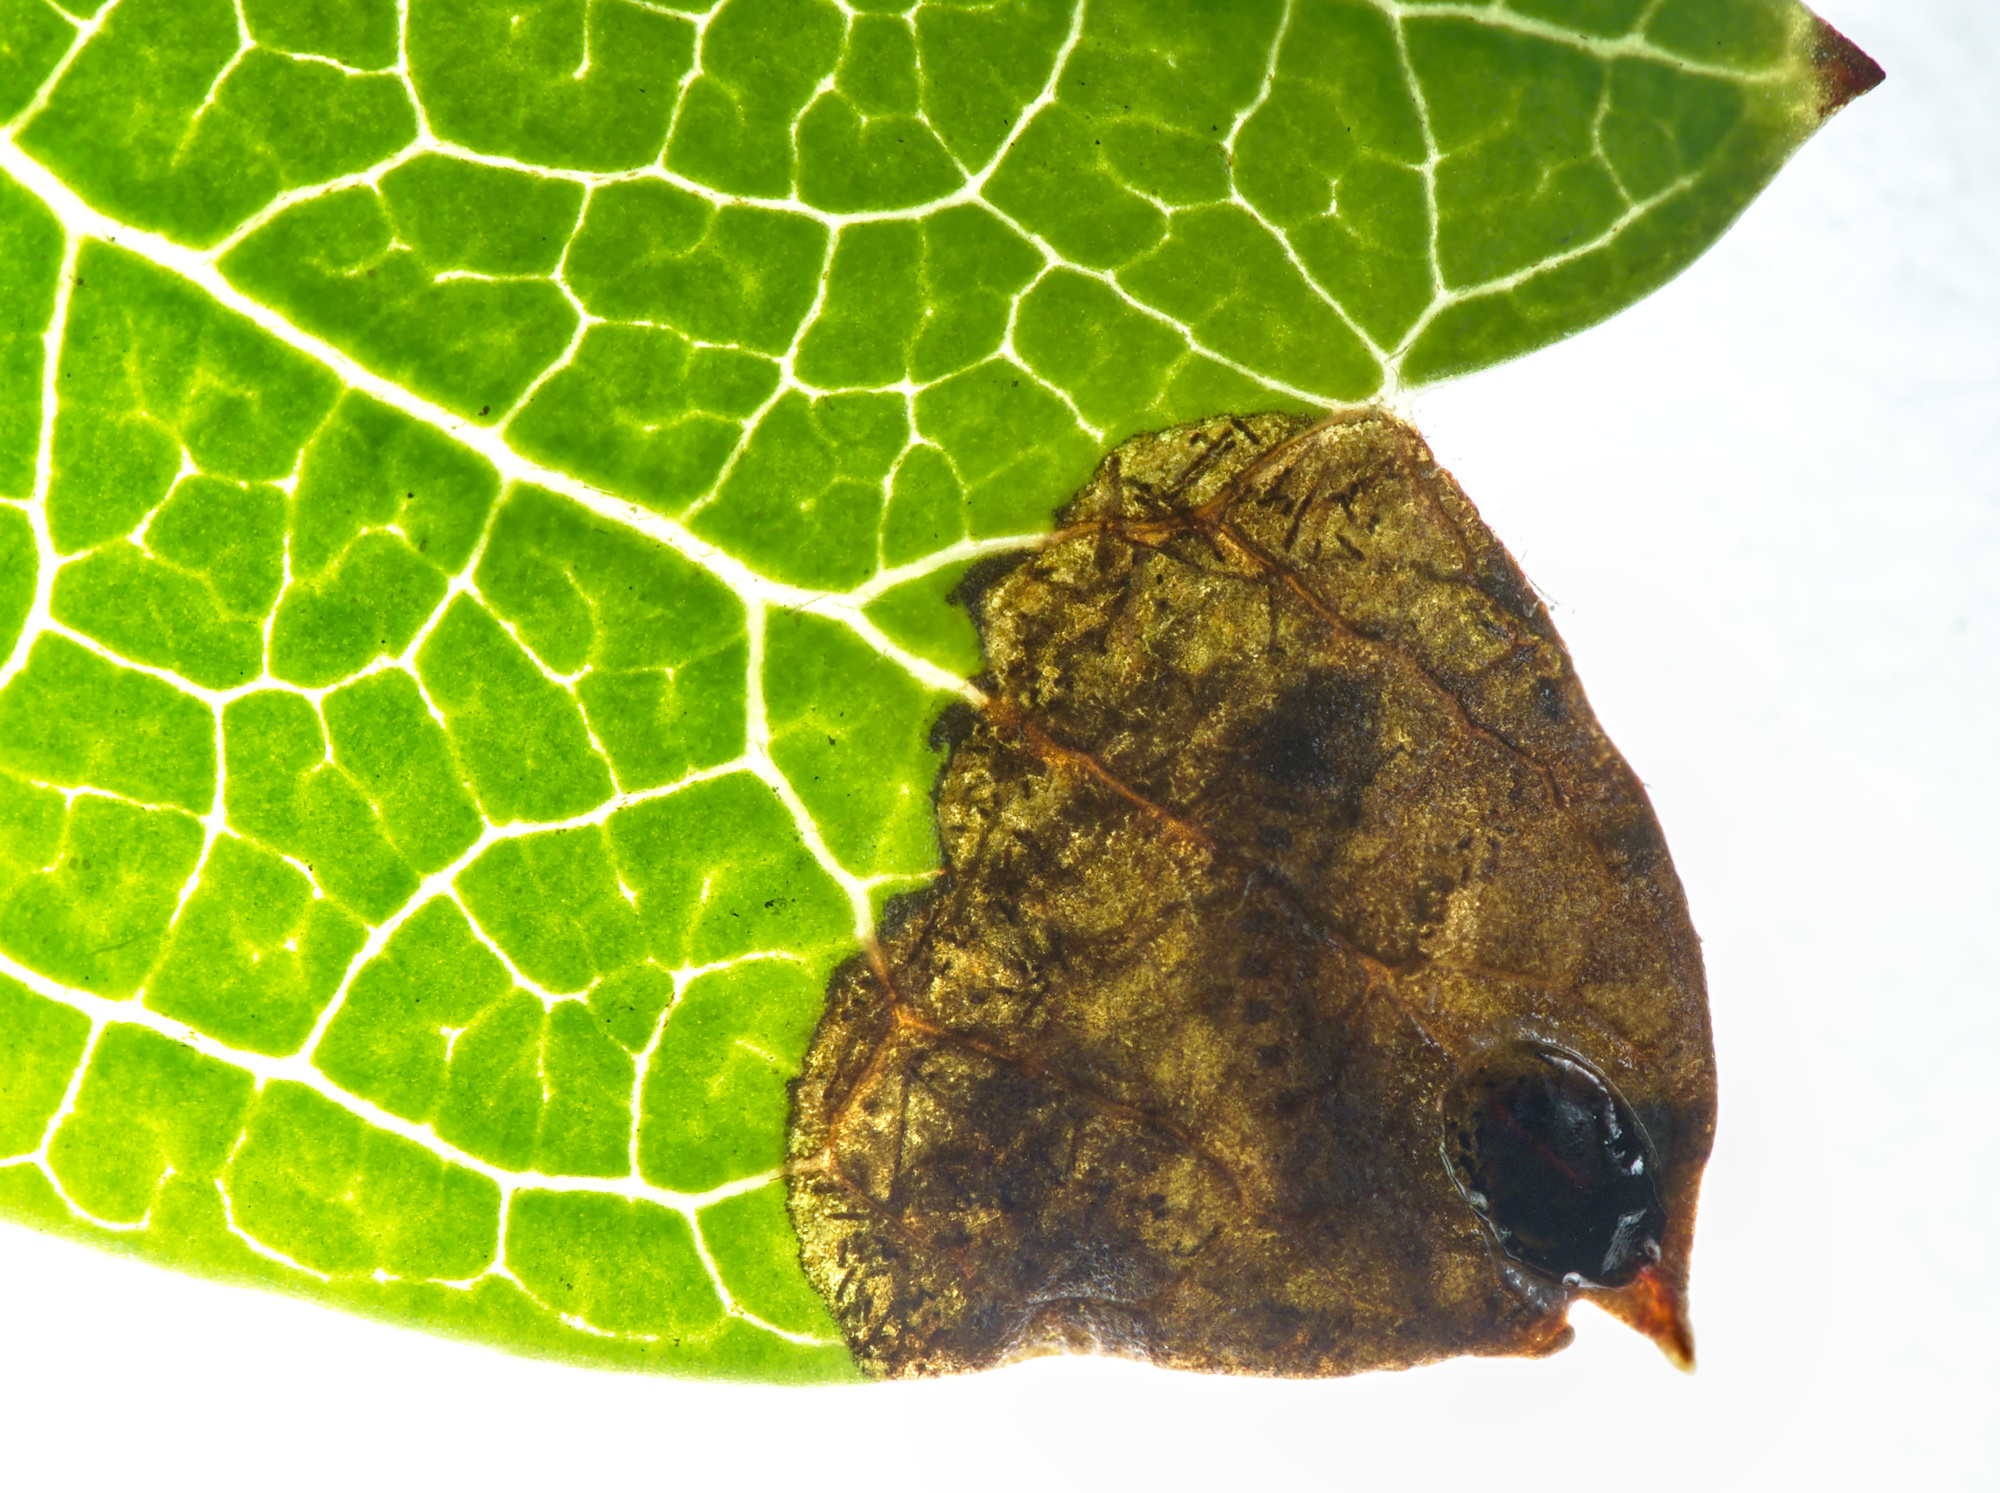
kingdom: Animalia
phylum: Arthropoda
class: Insecta
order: Coleoptera
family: Buprestidae
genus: Trachys
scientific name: Trachys minutus
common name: Metallic wood-boring beetle
